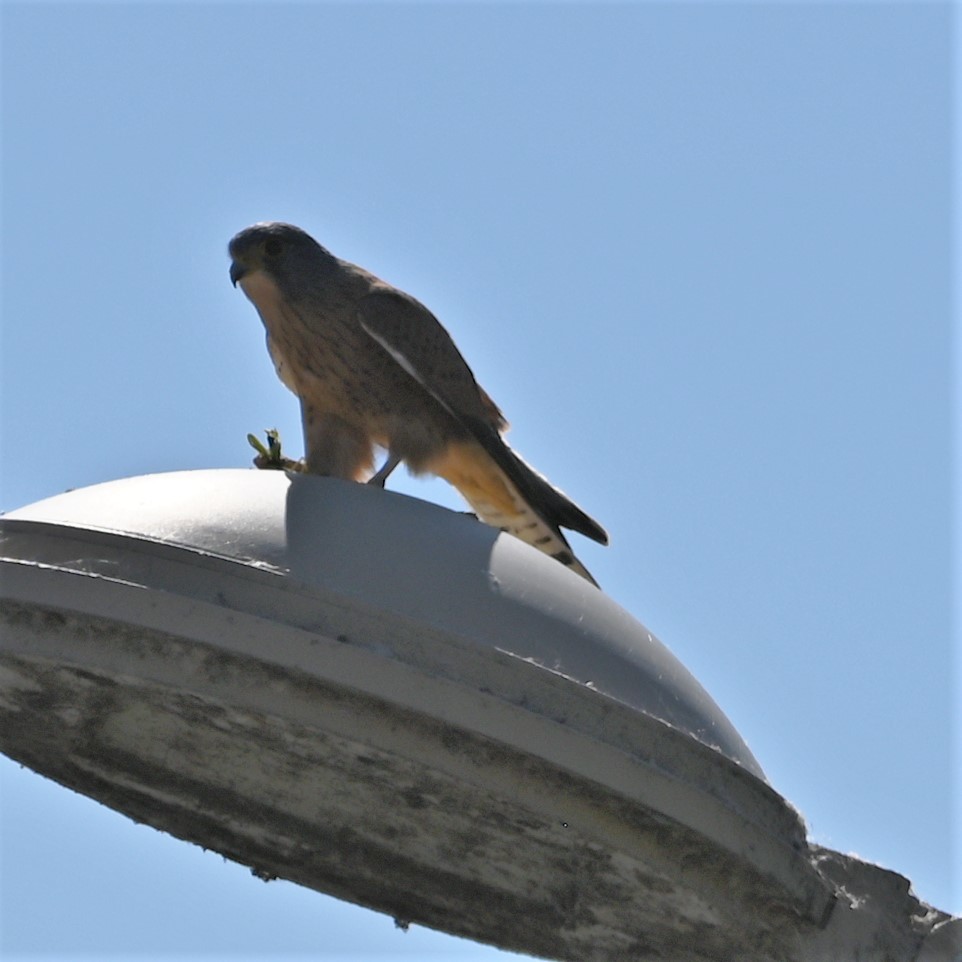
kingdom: Animalia
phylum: Chordata
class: Aves
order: Falconiformes
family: Falconidae
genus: Falco
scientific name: Falco rupicolus
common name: Rock kestrel
